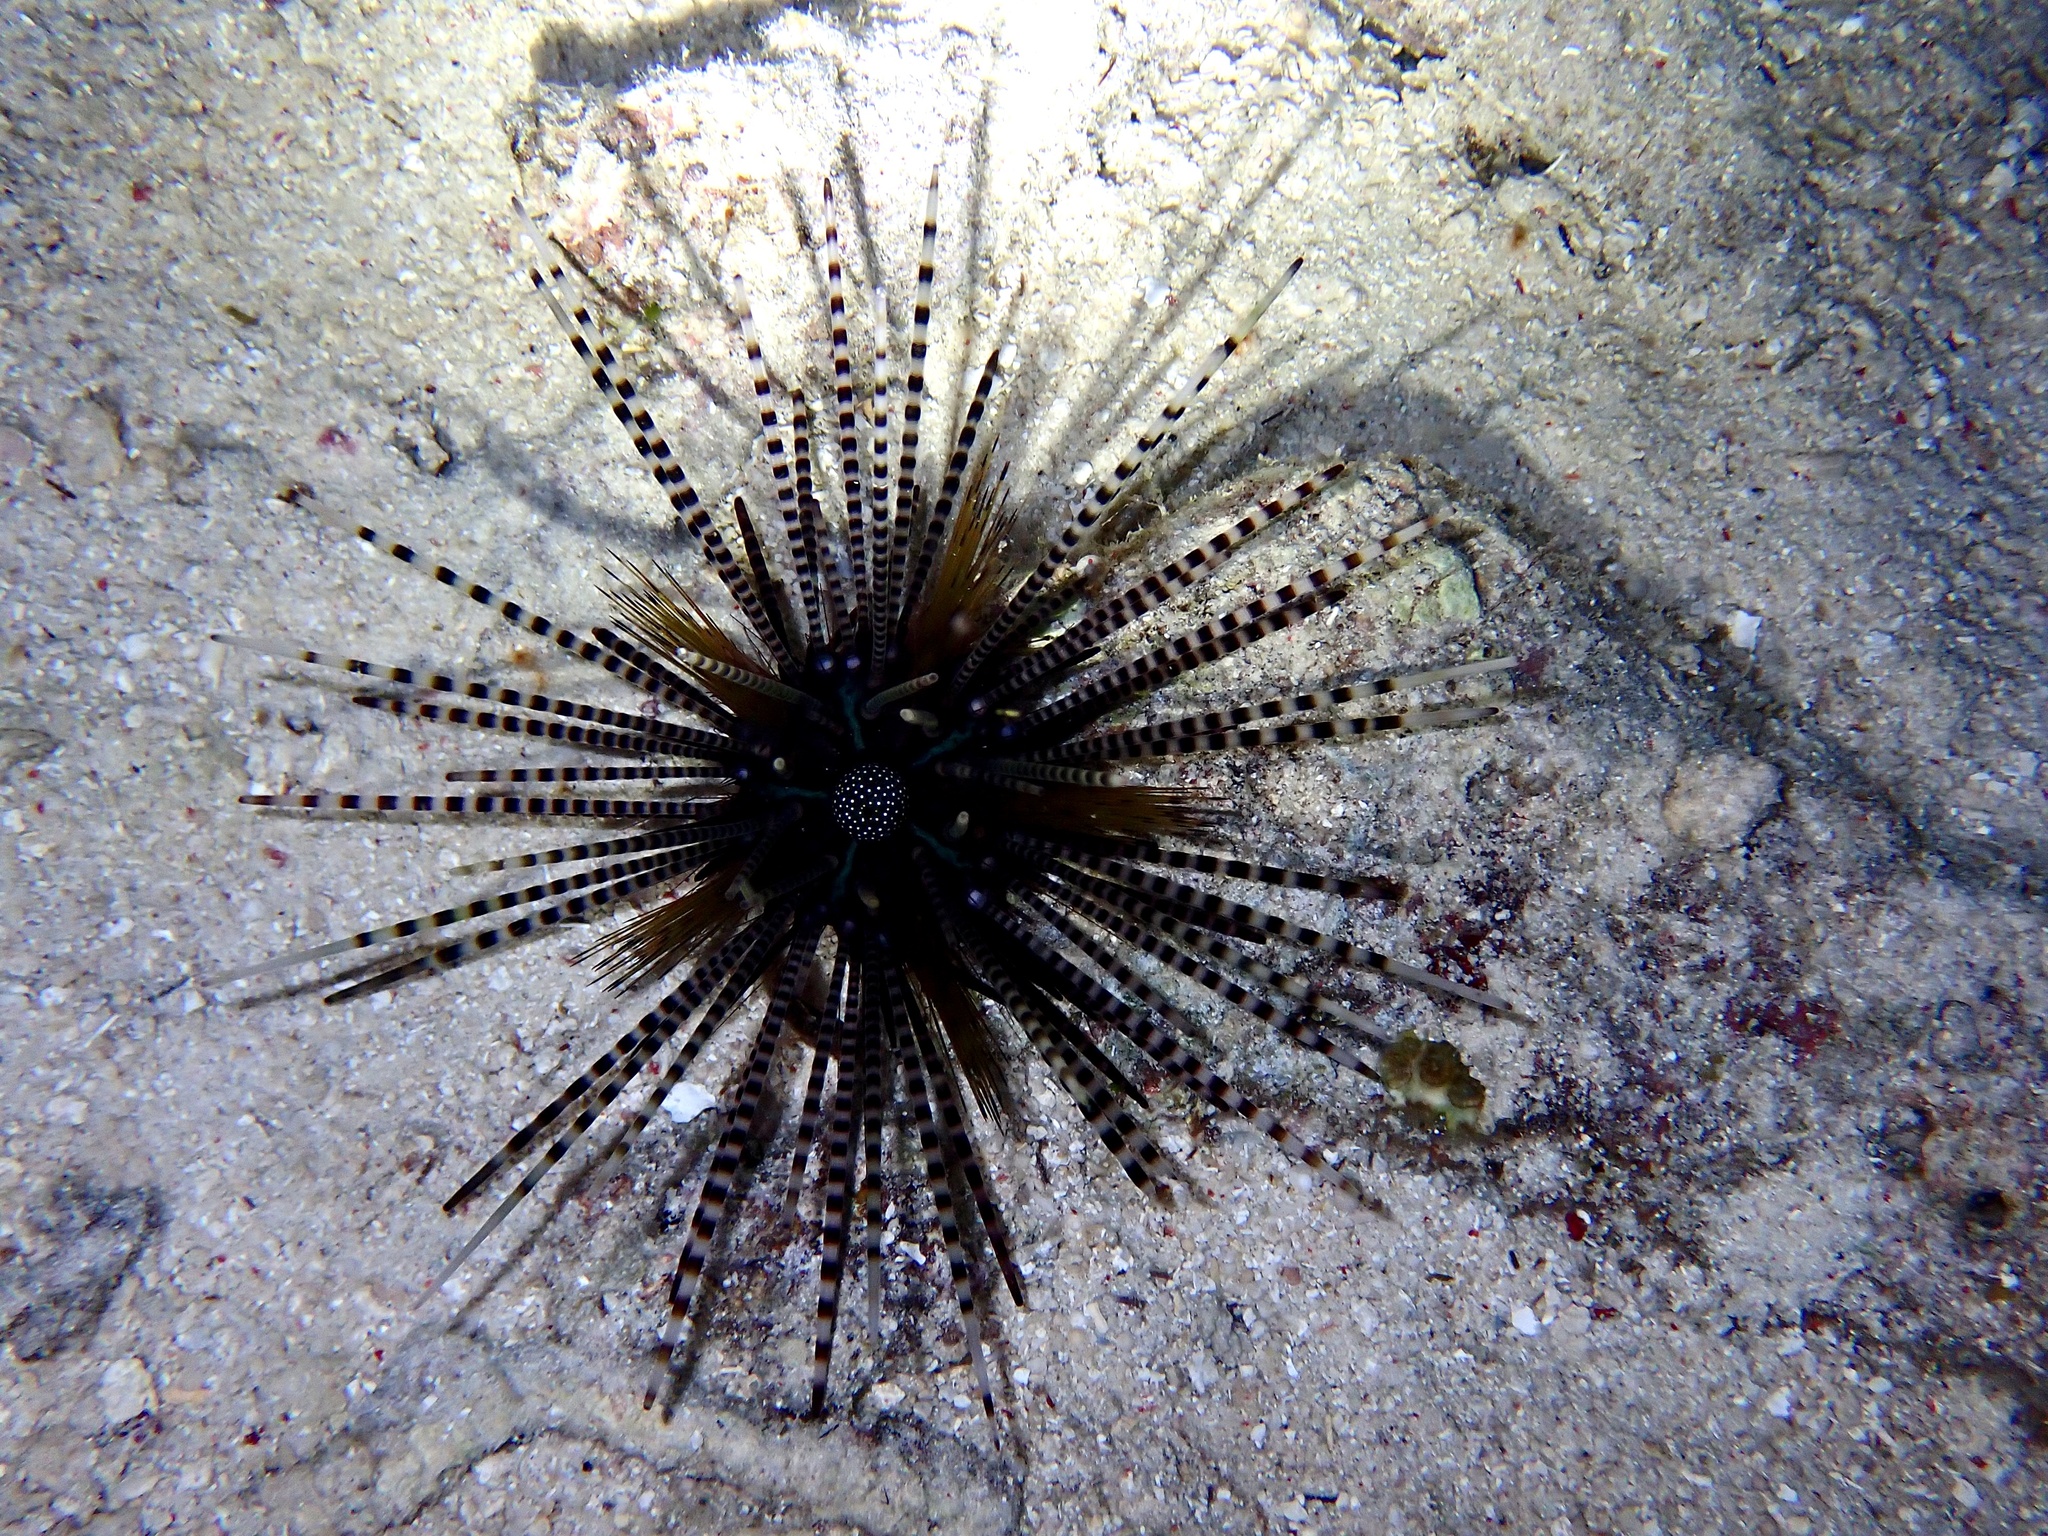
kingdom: Animalia
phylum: Echinodermata
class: Echinoidea
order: Diadematoida
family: Diadematidae
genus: Echinothrix
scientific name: Echinothrix calamaris
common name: Banded sea urchin
